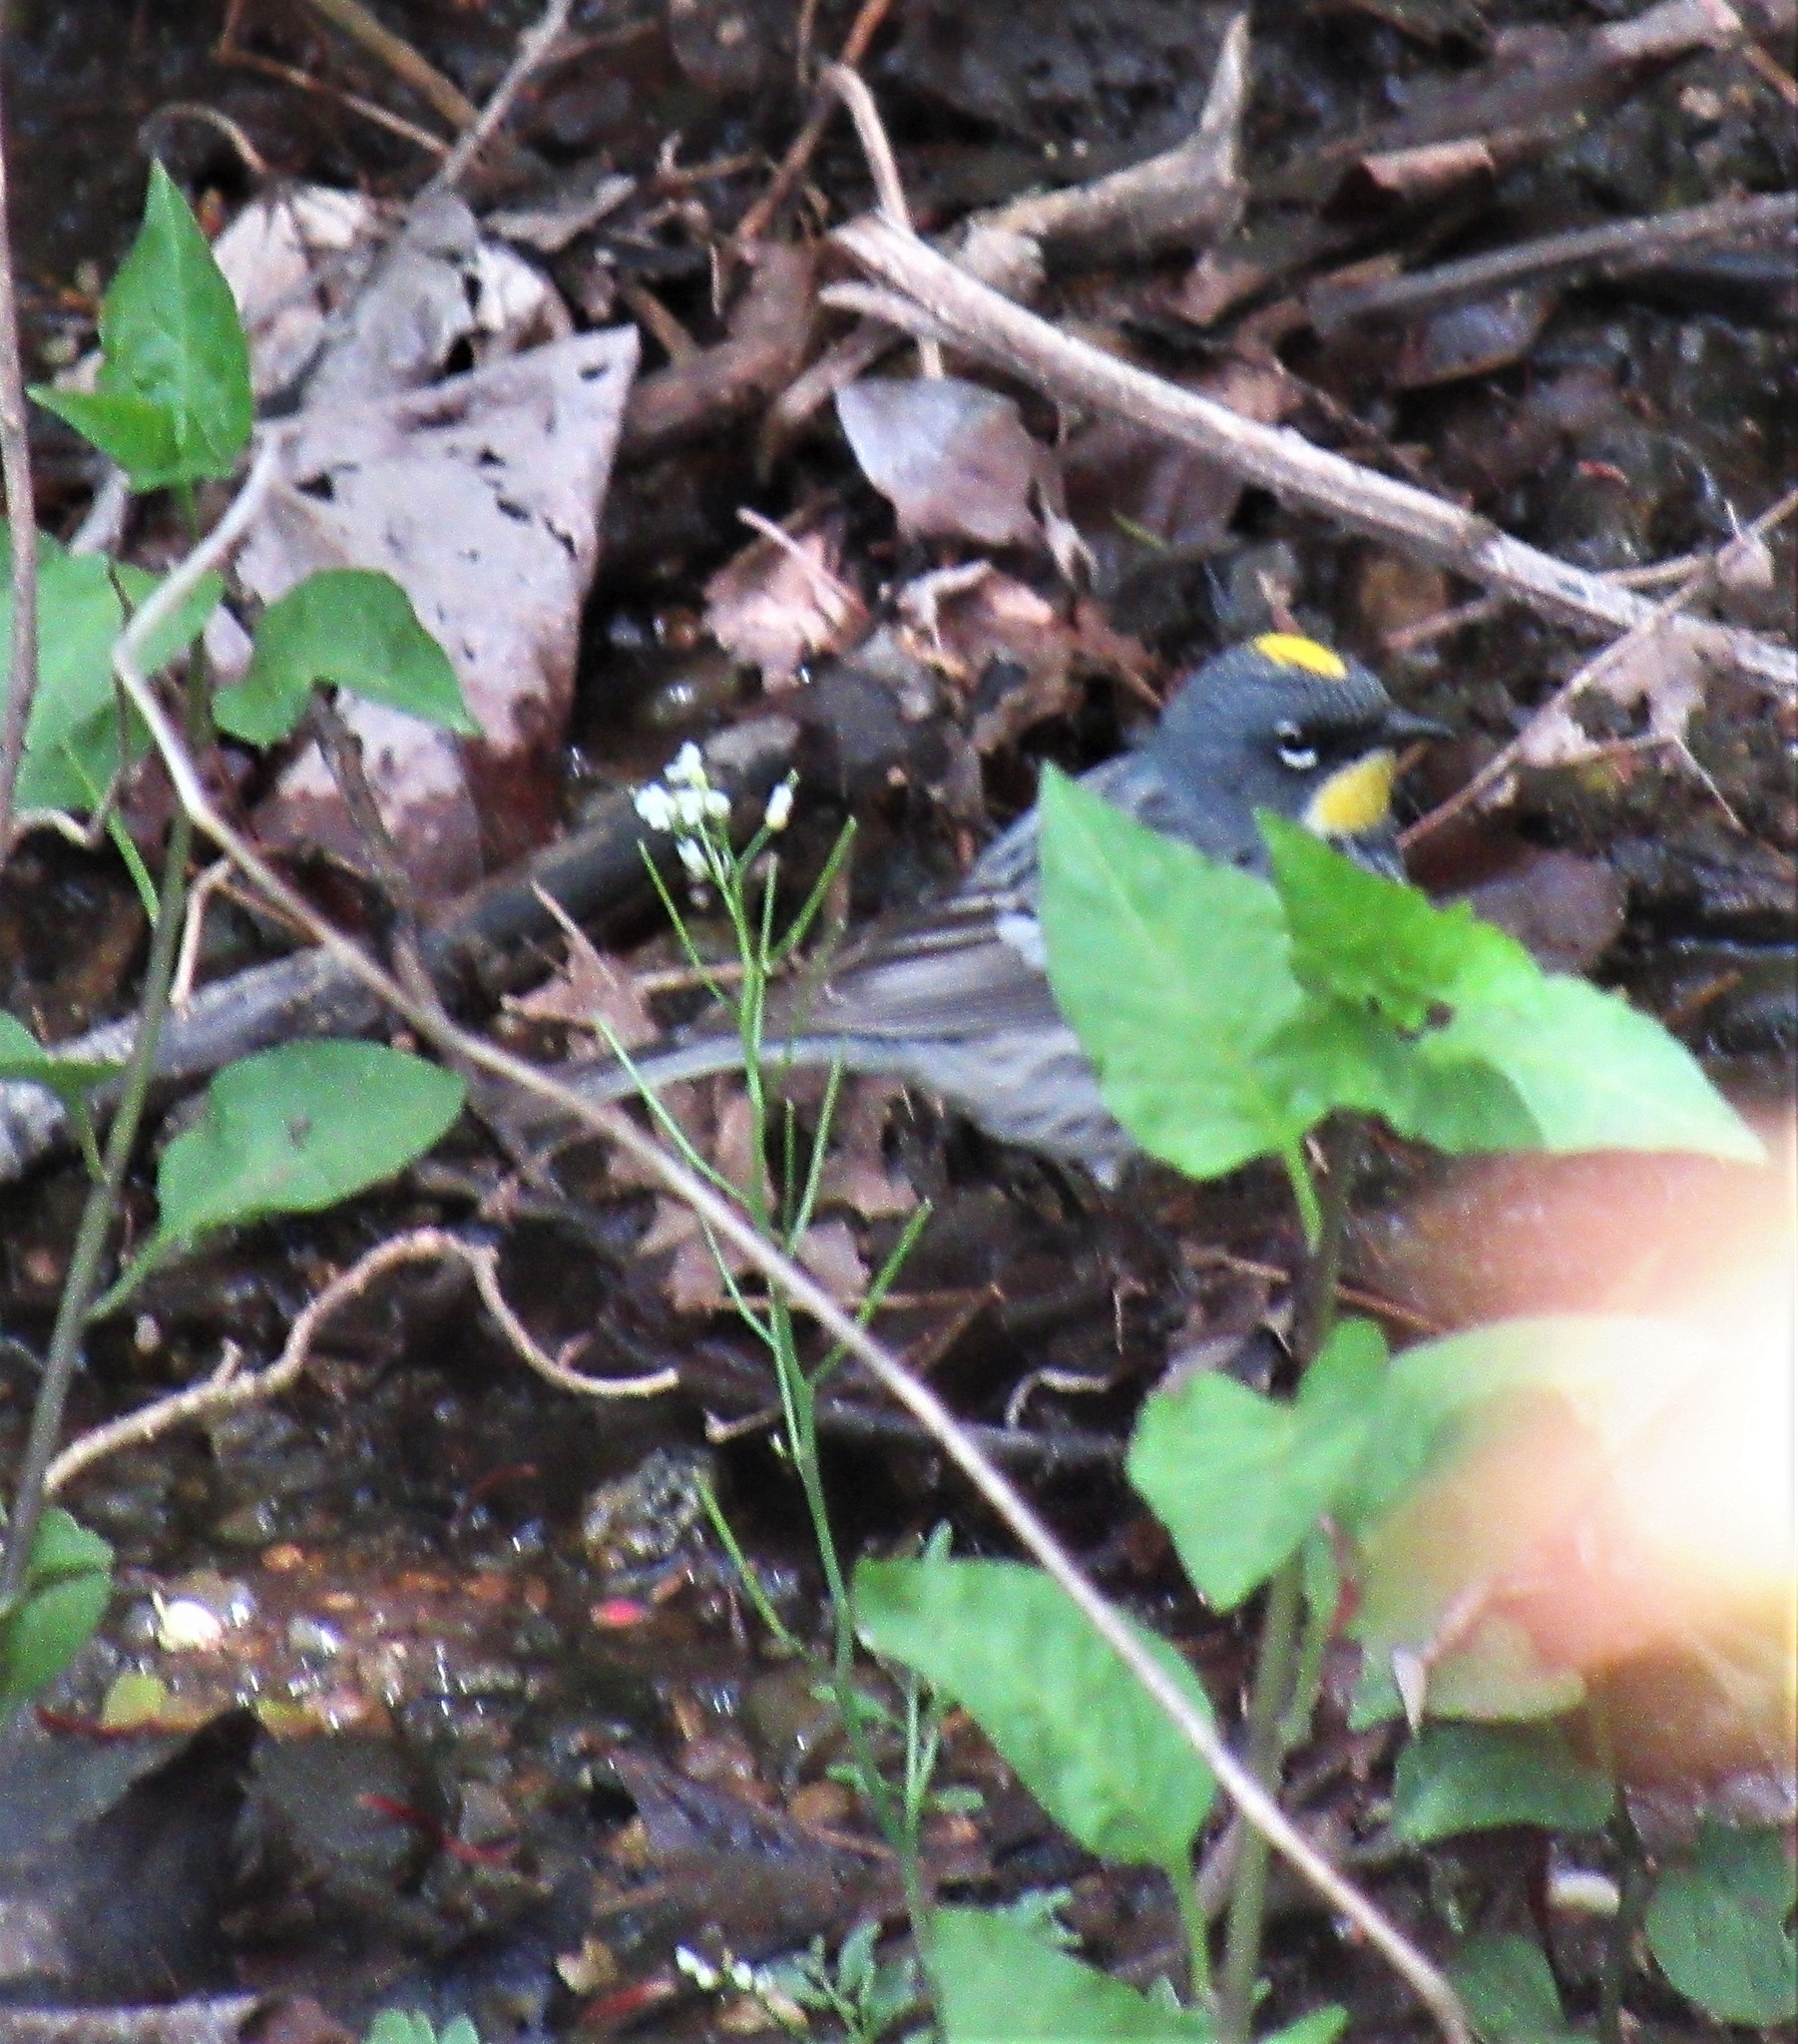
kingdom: Animalia
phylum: Chordata
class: Aves
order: Passeriformes
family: Parulidae
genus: Setophaga
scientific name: Setophaga auduboni
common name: Audubon's warbler
